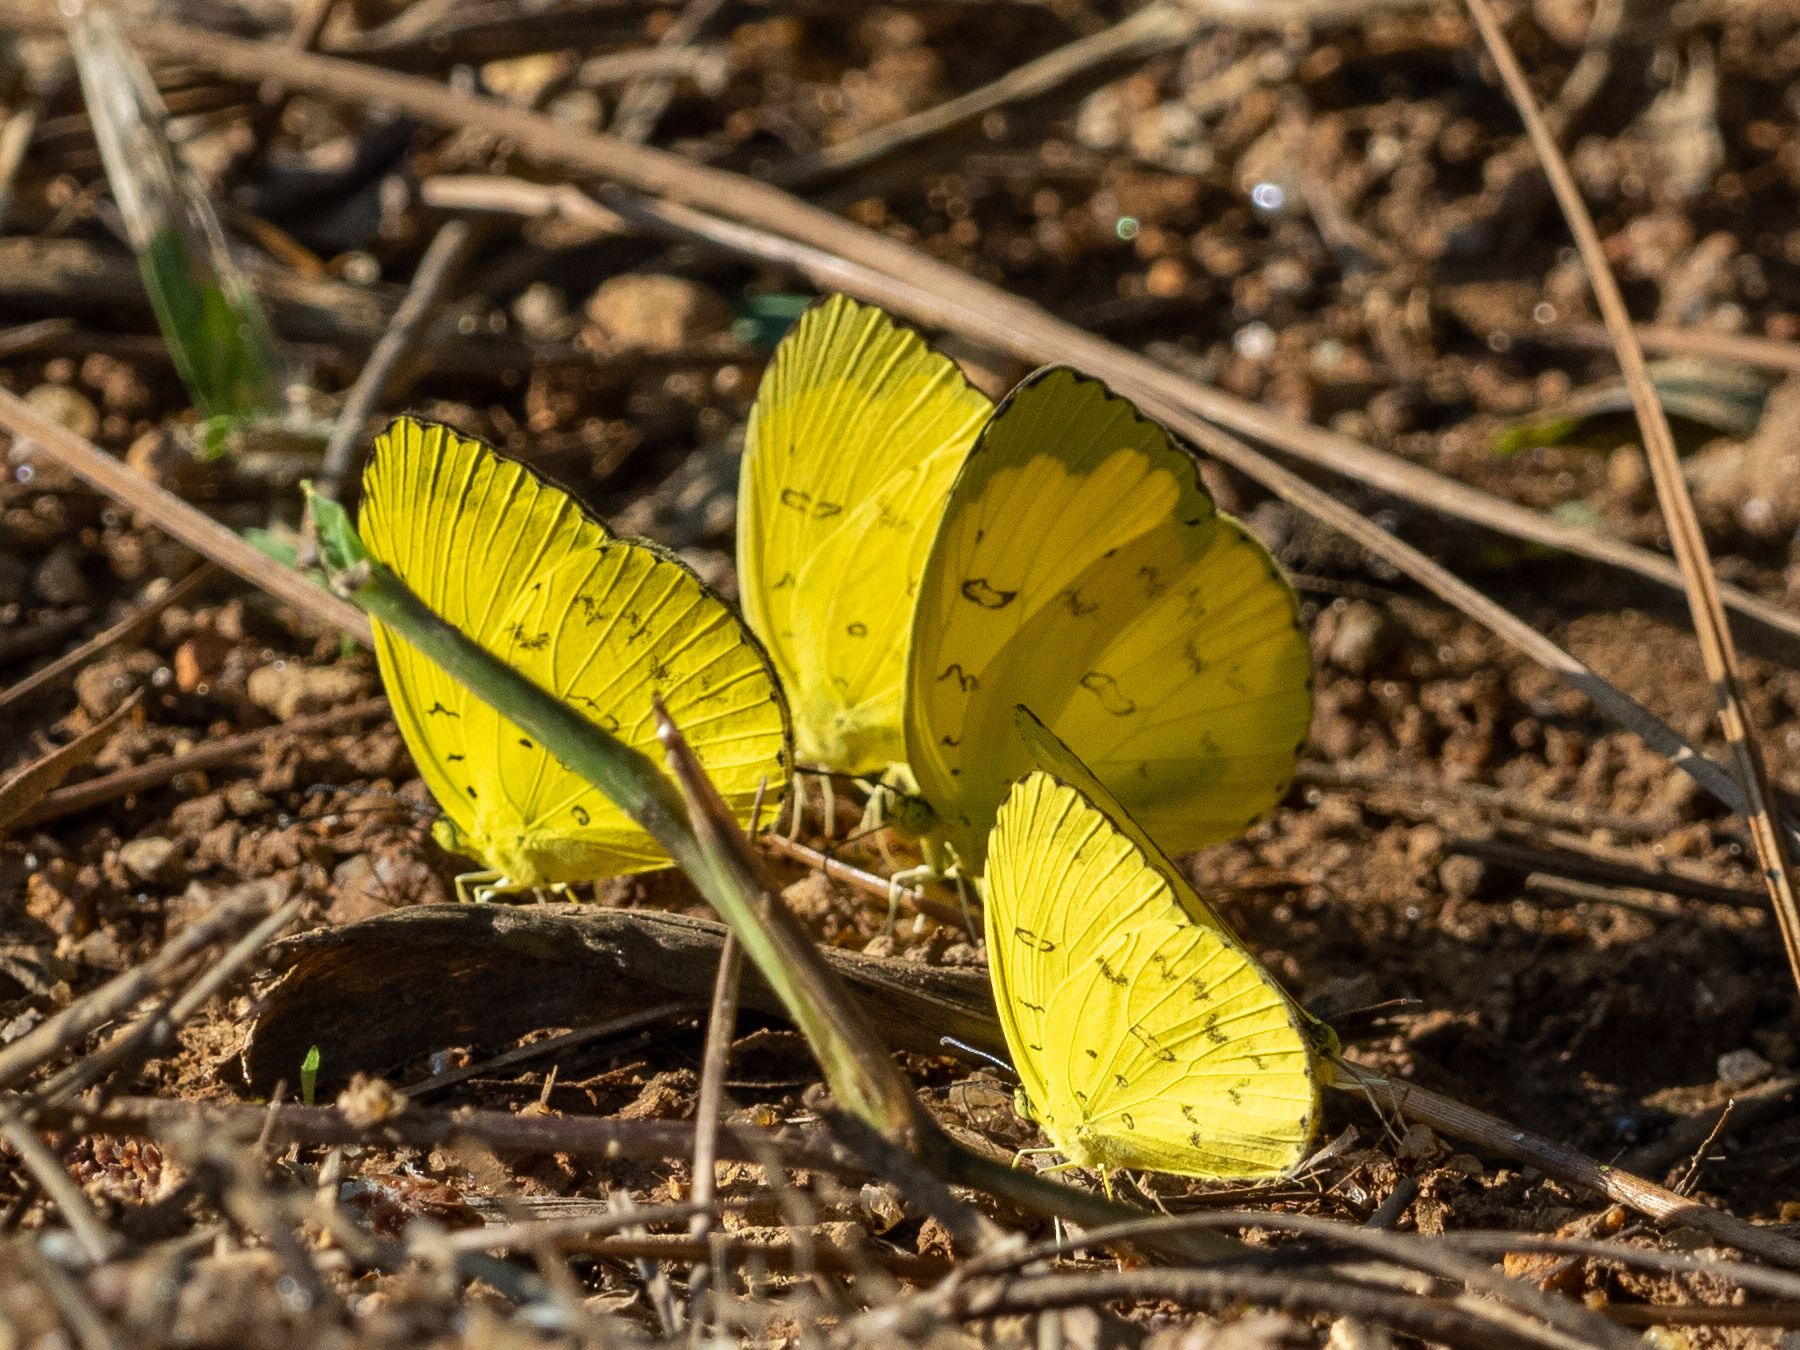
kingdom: Animalia
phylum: Arthropoda
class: Insecta
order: Lepidoptera
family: Pieridae
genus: Eurema
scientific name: Eurema blanda
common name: Three-spot grass yellow
